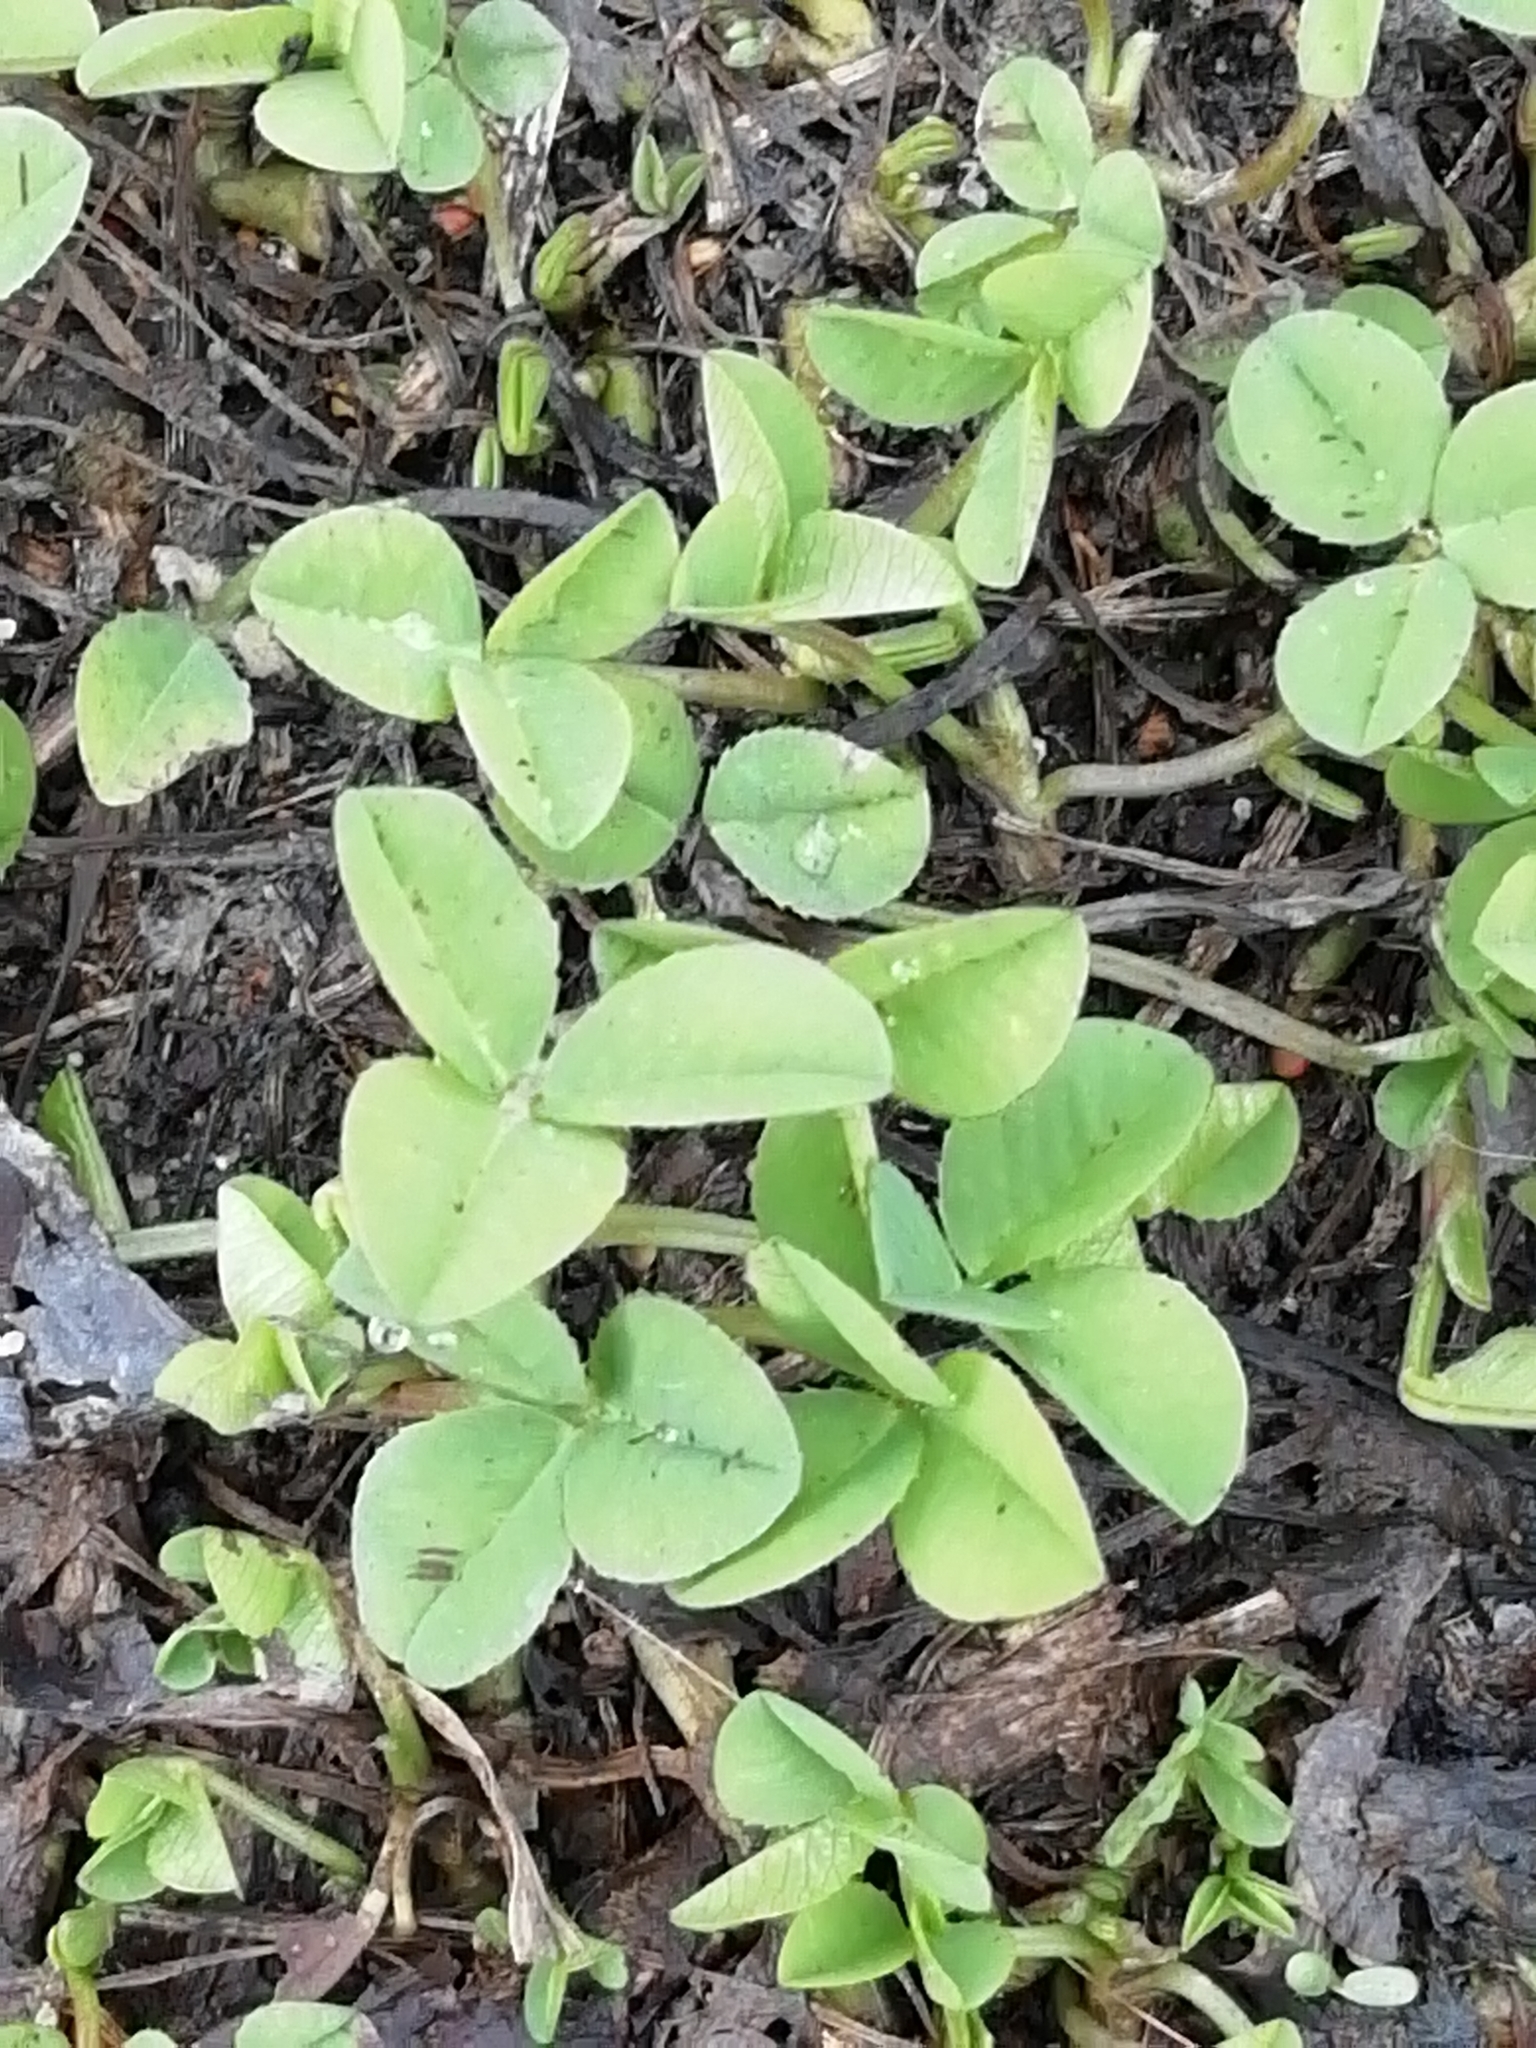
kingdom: Plantae
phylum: Tracheophyta
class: Magnoliopsida
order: Fabales
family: Fabaceae
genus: Trifolium
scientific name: Trifolium repens
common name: White clover
